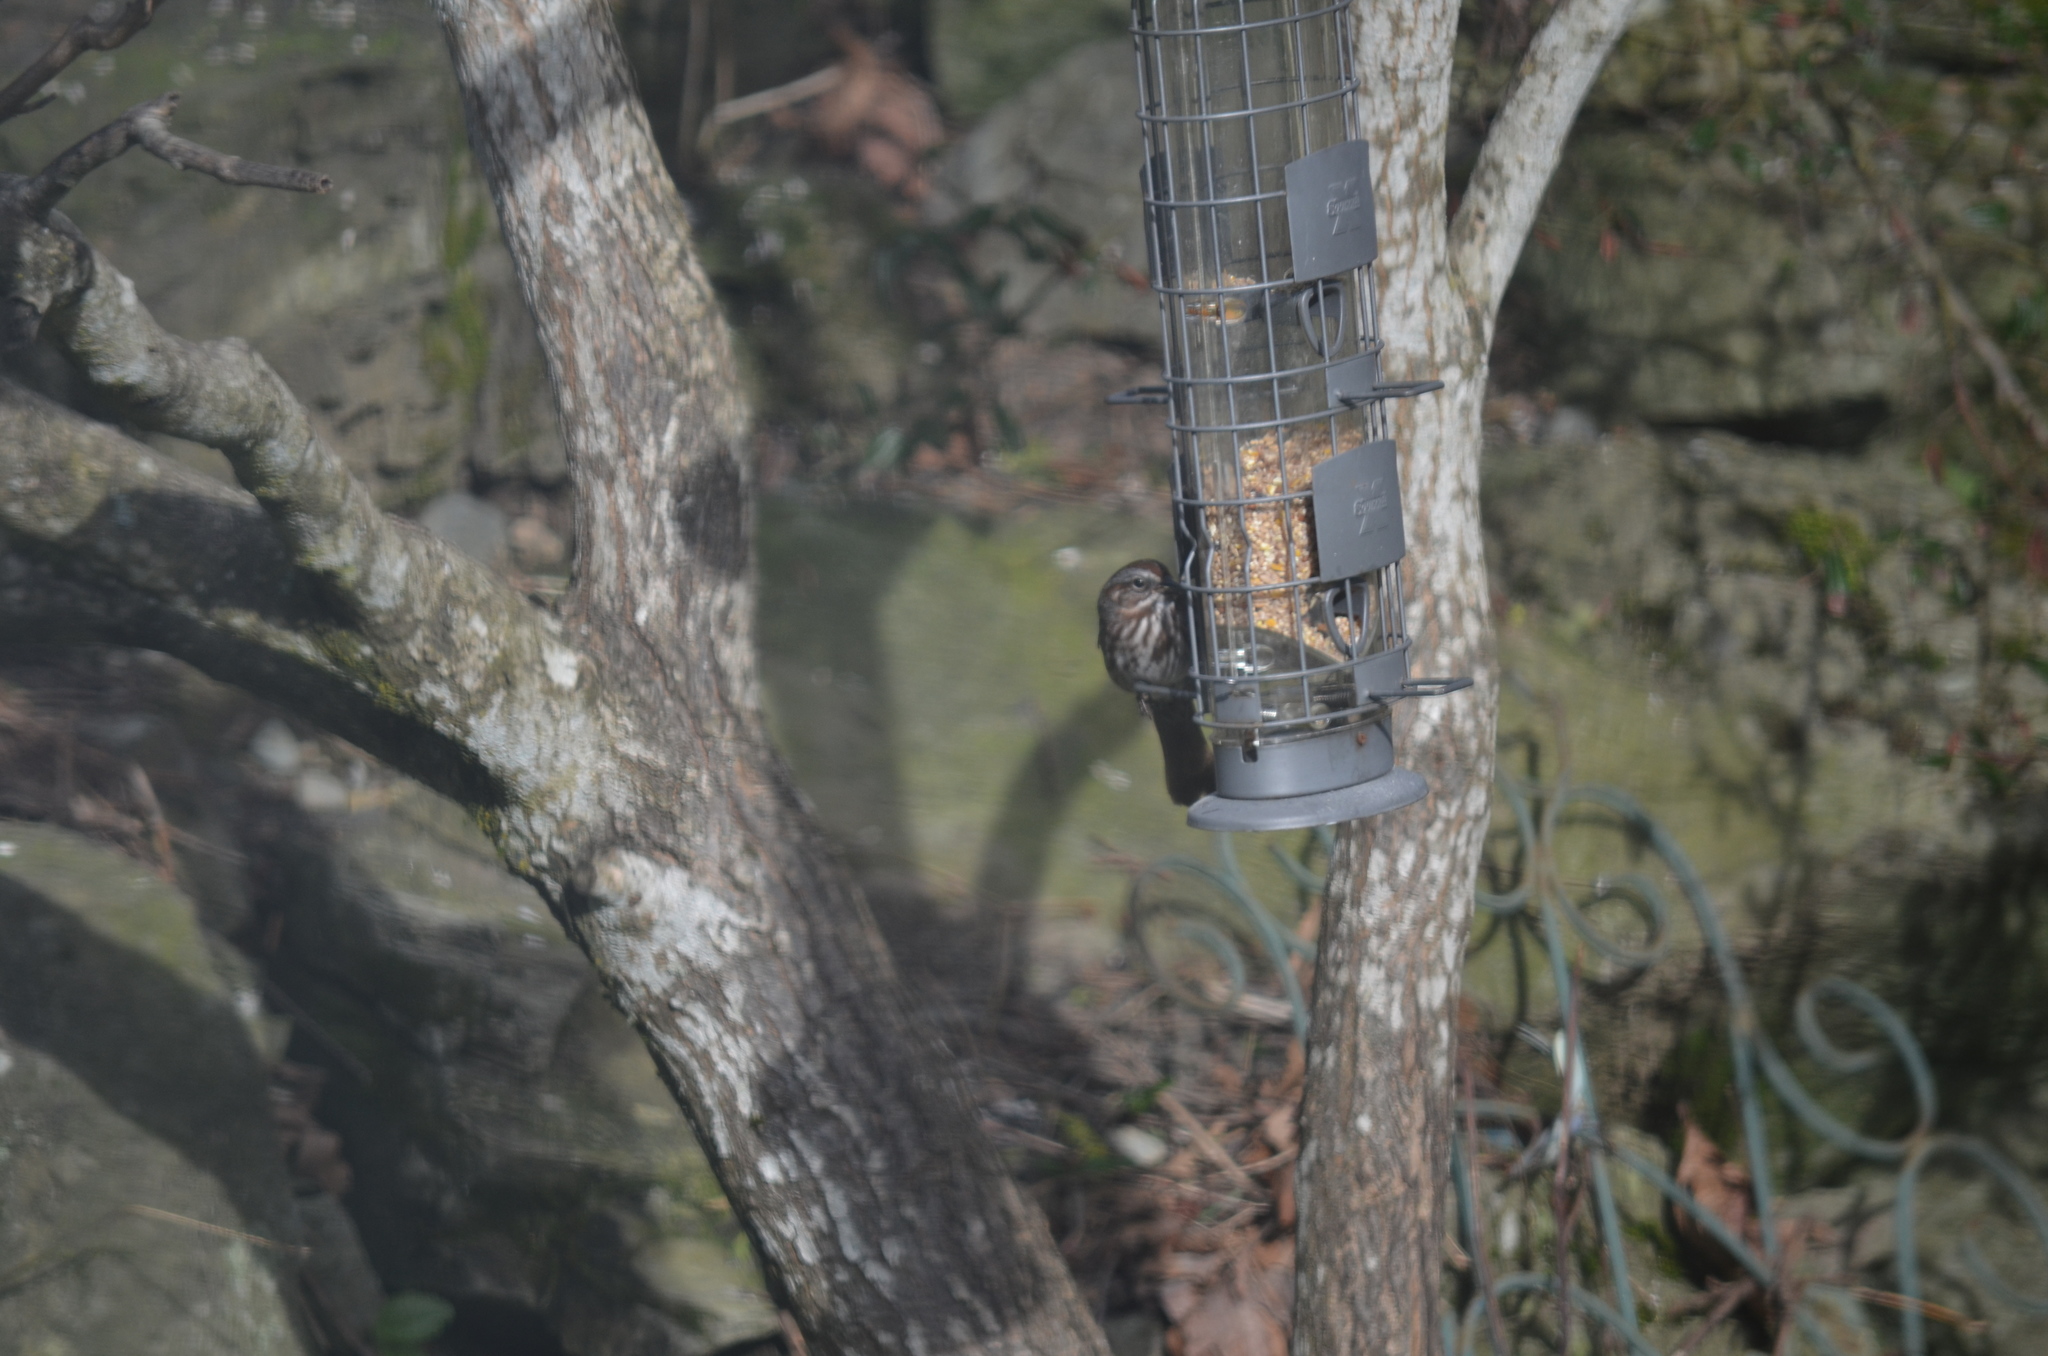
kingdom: Animalia
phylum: Chordata
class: Aves
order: Passeriformes
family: Passerellidae
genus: Melospiza
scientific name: Melospiza melodia
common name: Song sparrow
